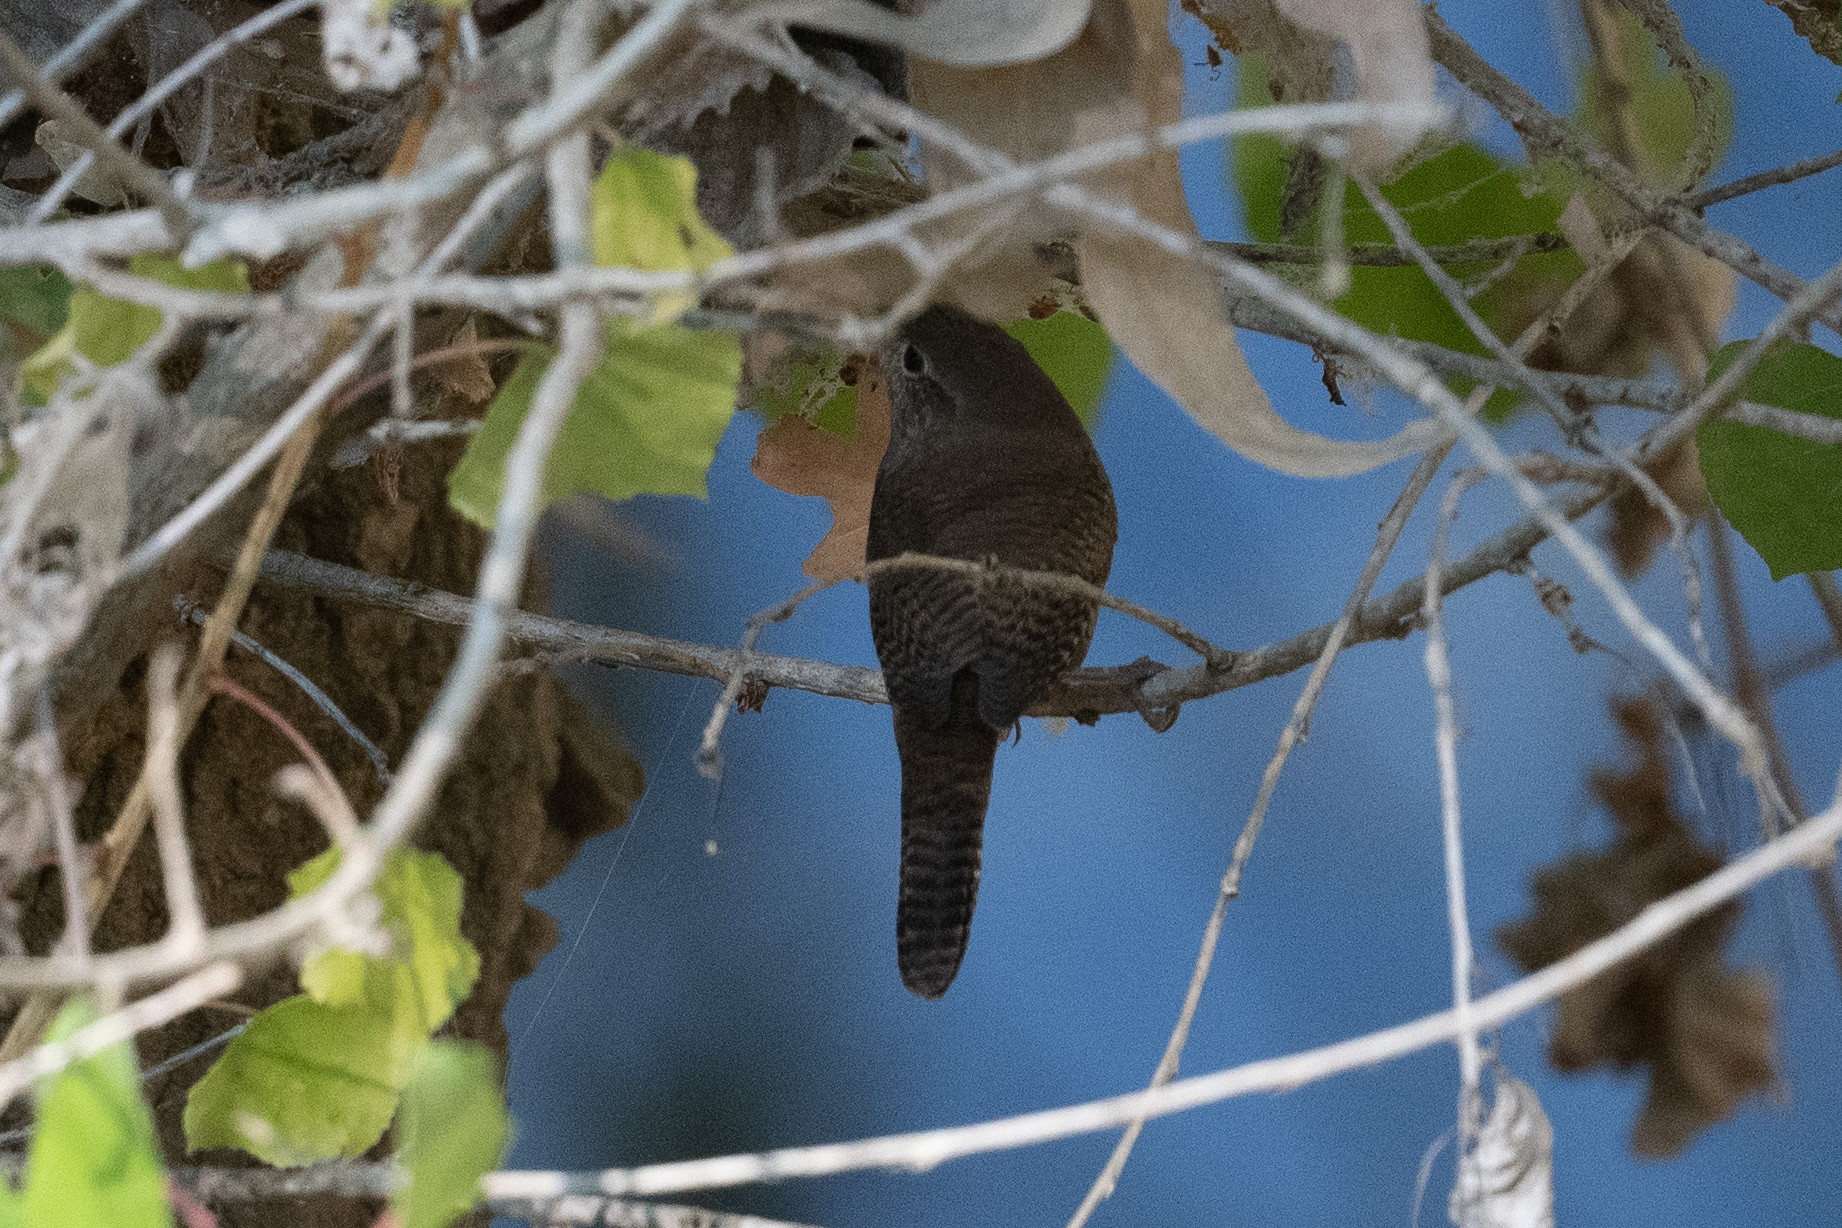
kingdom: Animalia
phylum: Chordata
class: Aves
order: Passeriformes
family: Troglodytidae
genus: Troglodytes
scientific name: Troglodytes aedon
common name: House wren
